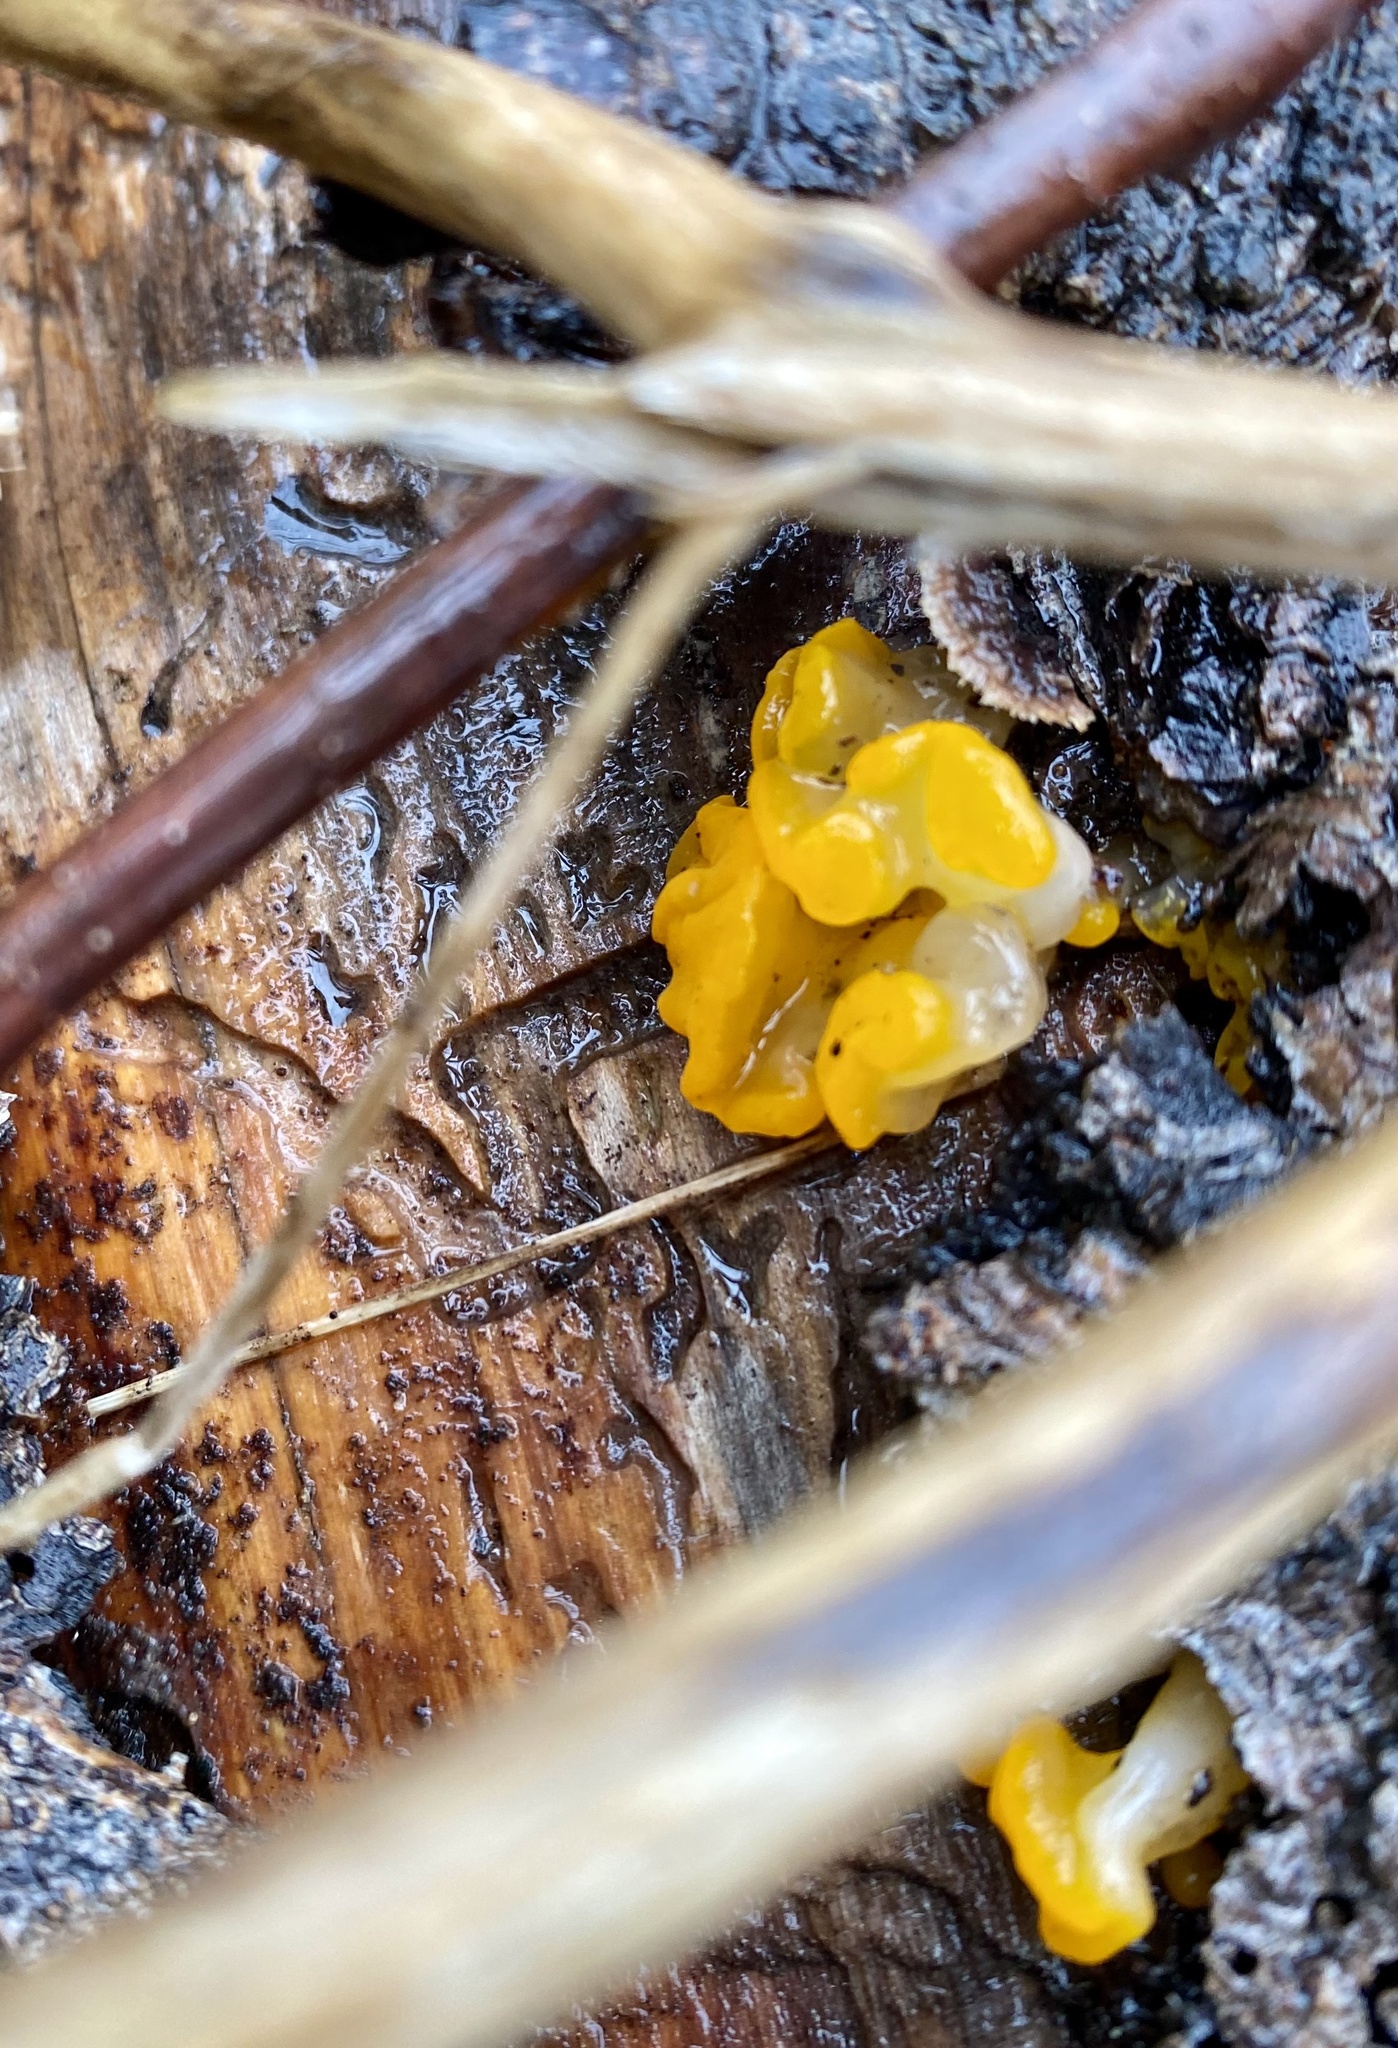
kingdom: Fungi
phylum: Basidiomycota
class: Dacrymycetes
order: Dacrymycetales
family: Dacrymycetaceae
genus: Dacrymyces
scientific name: Dacrymyces chrysospermus
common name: Orange jelly spot
